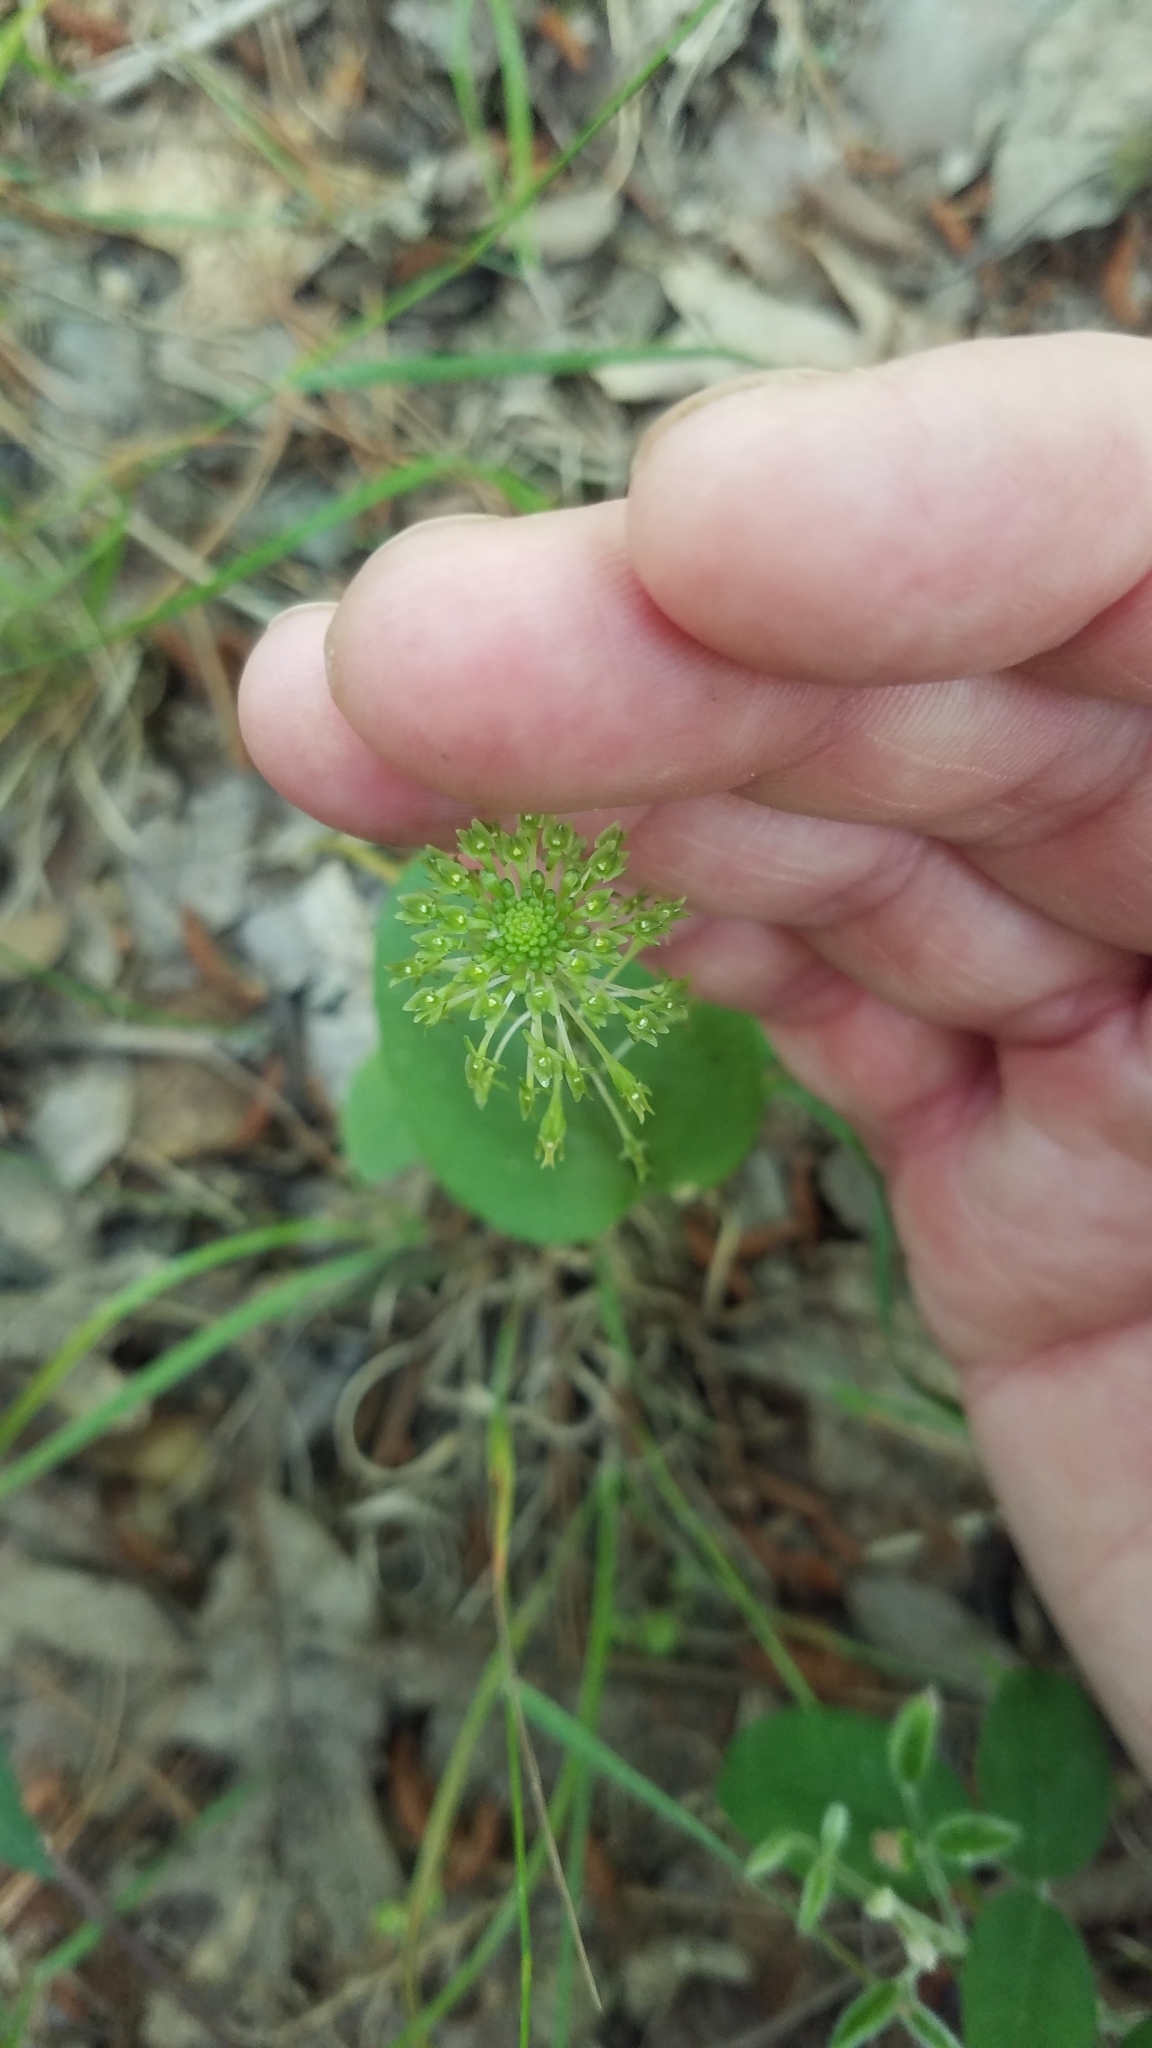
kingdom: Plantae
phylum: Tracheophyta
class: Liliopsida
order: Asparagales
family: Orchidaceae
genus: Malaxis
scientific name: Malaxis unifolia
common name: Green adder's-mouth
